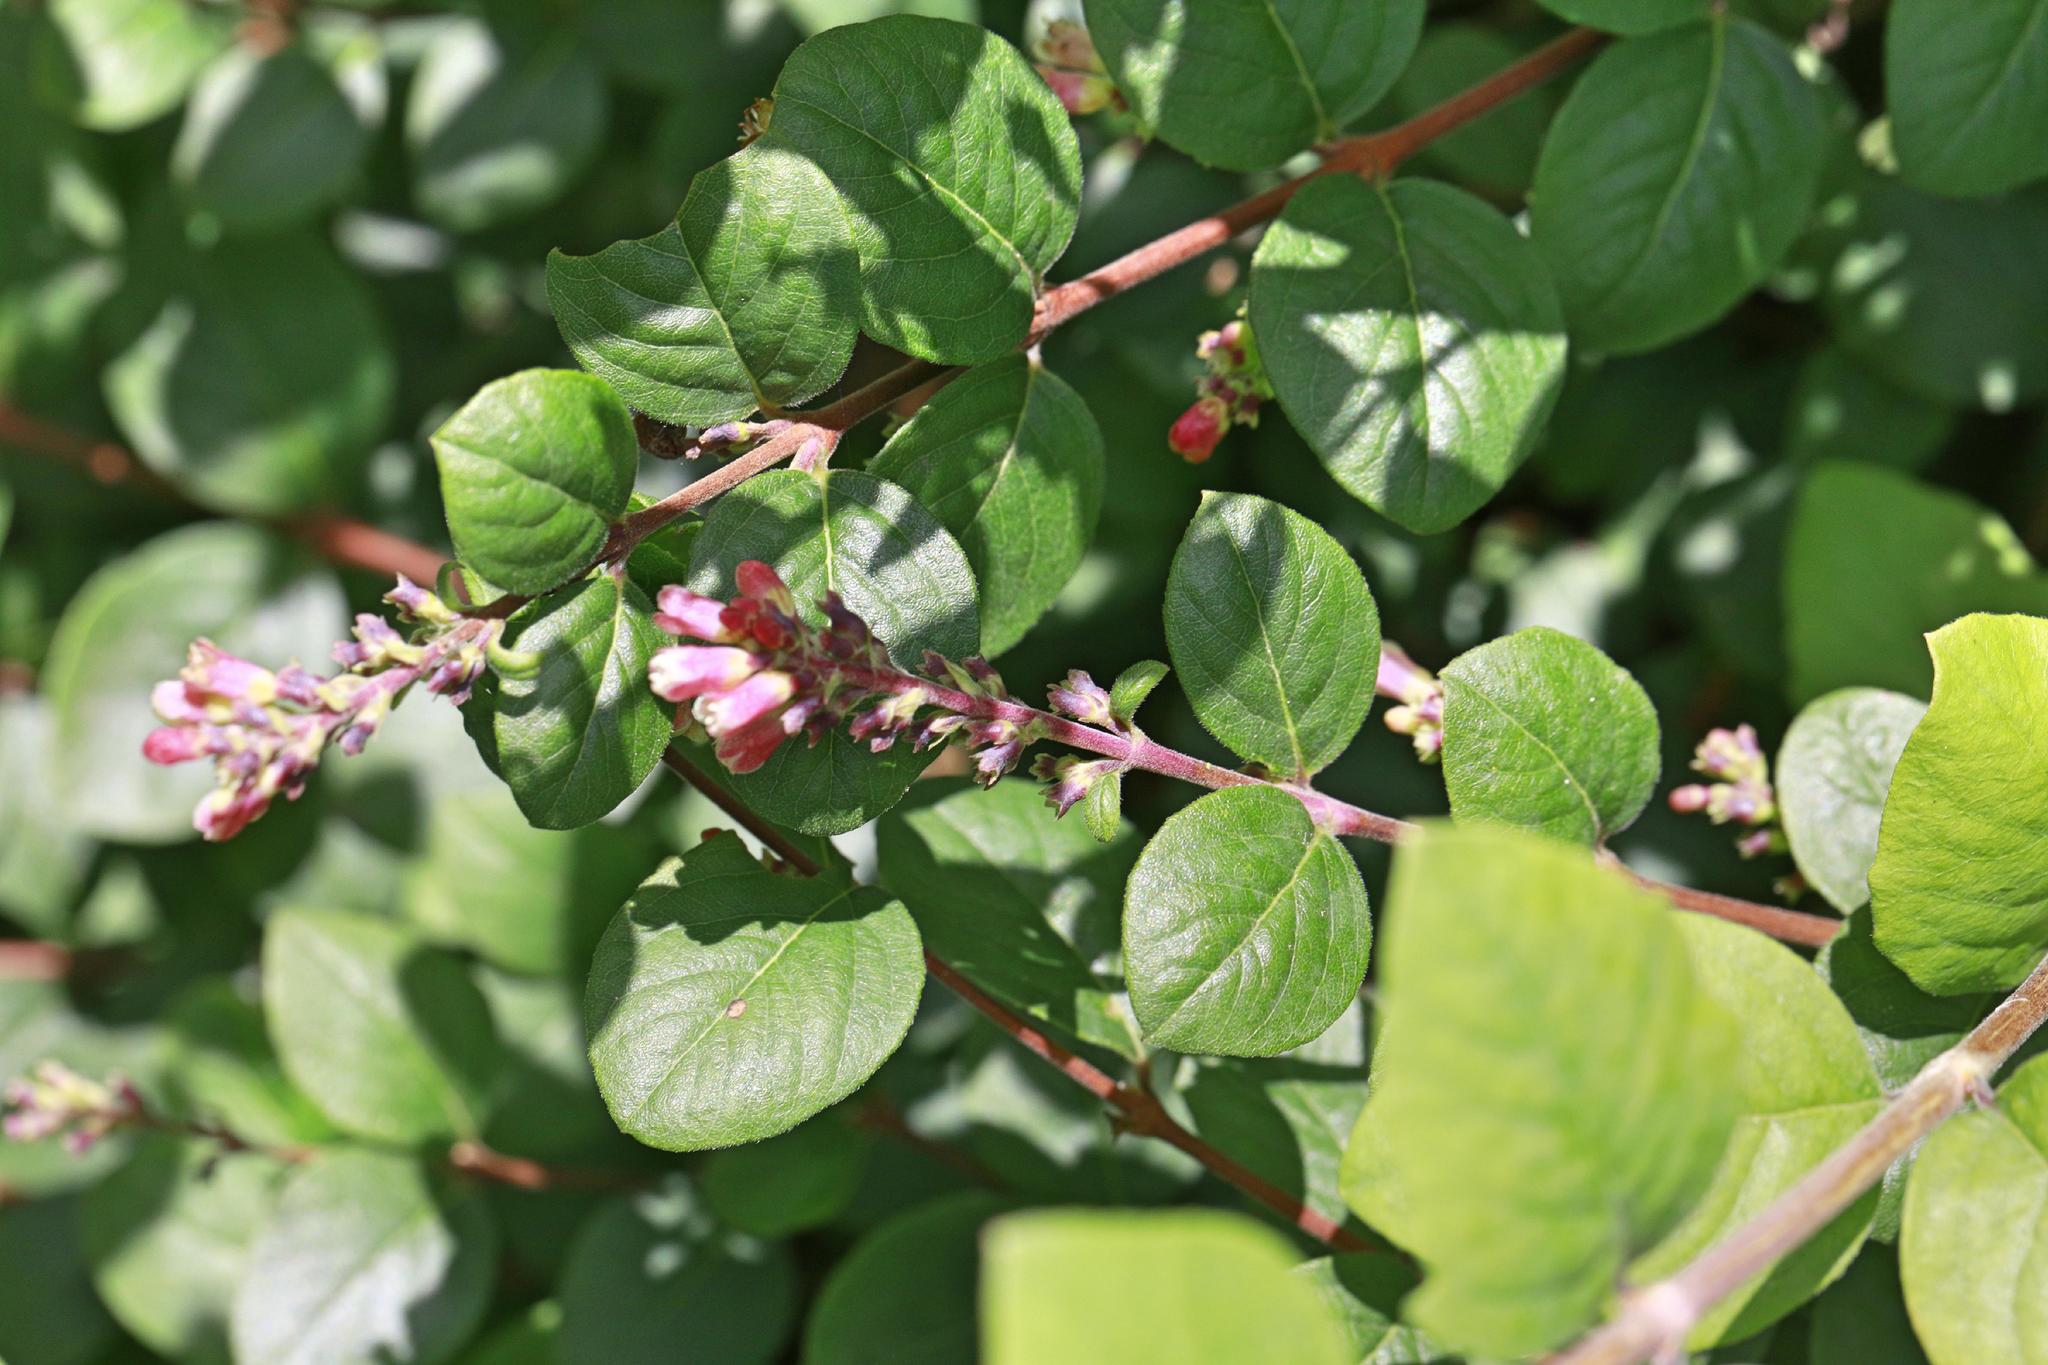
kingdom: Plantae
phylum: Tracheophyta
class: Magnoliopsida
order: Dipsacales
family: Caprifoliaceae
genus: Symphoricarpos
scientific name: Symphoricarpos albus
